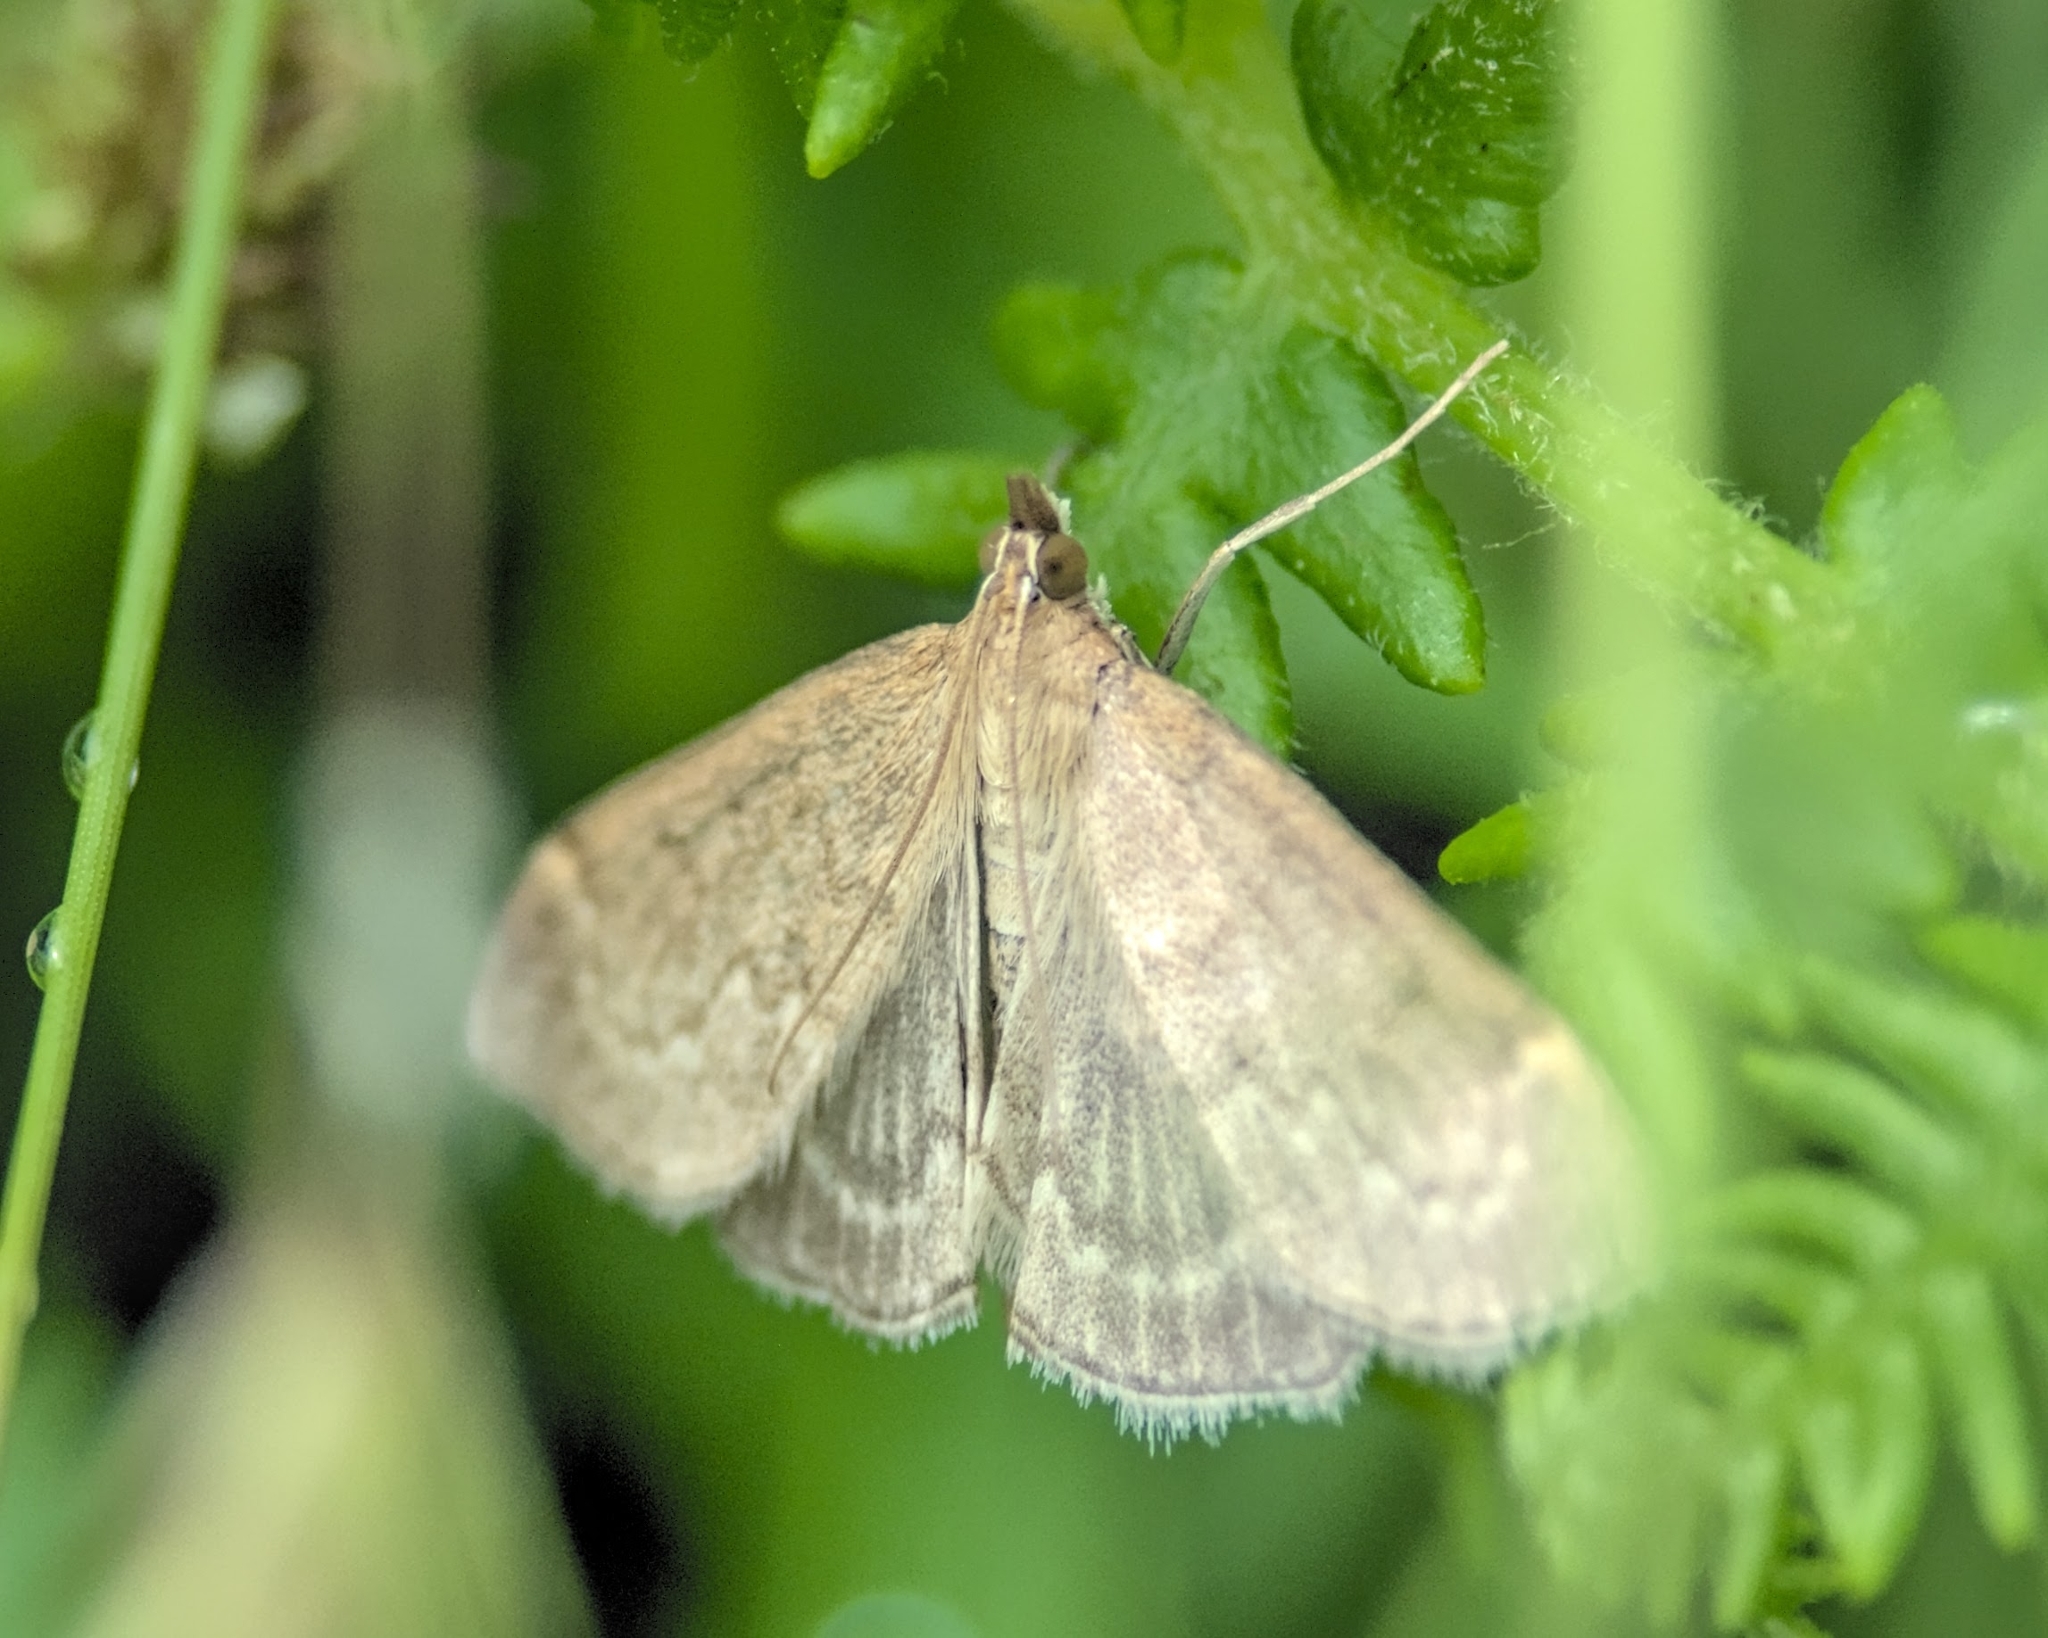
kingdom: Animalia
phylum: Arthropoda
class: Insecta
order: Lepidoptera
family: Crambidae
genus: Anania
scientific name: Anania fuscalis
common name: Cinerous pearl
